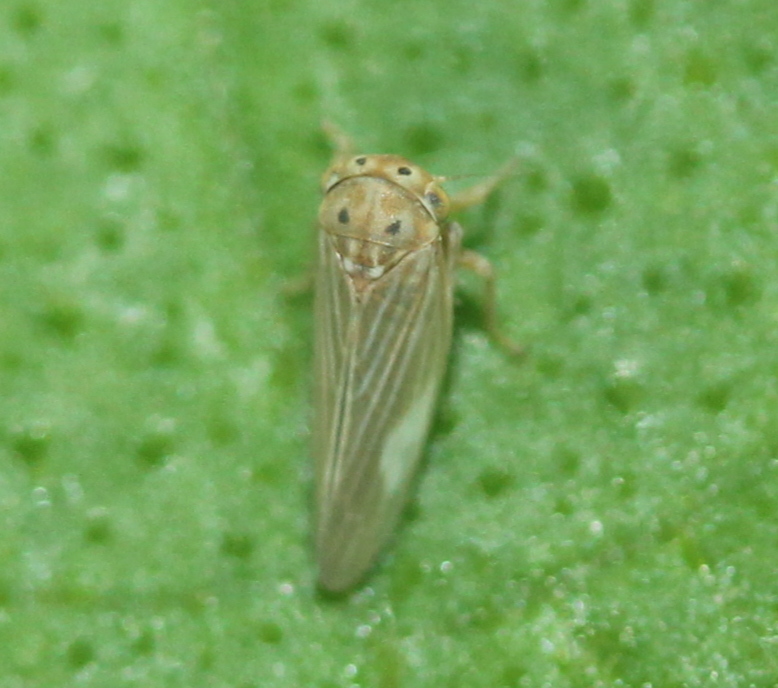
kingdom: Animalia
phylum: Arthropoda
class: Insecta
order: Hemiptera
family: Cicadellidae
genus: Agallia
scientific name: Agallia constricta
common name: The constricted leafhopper
